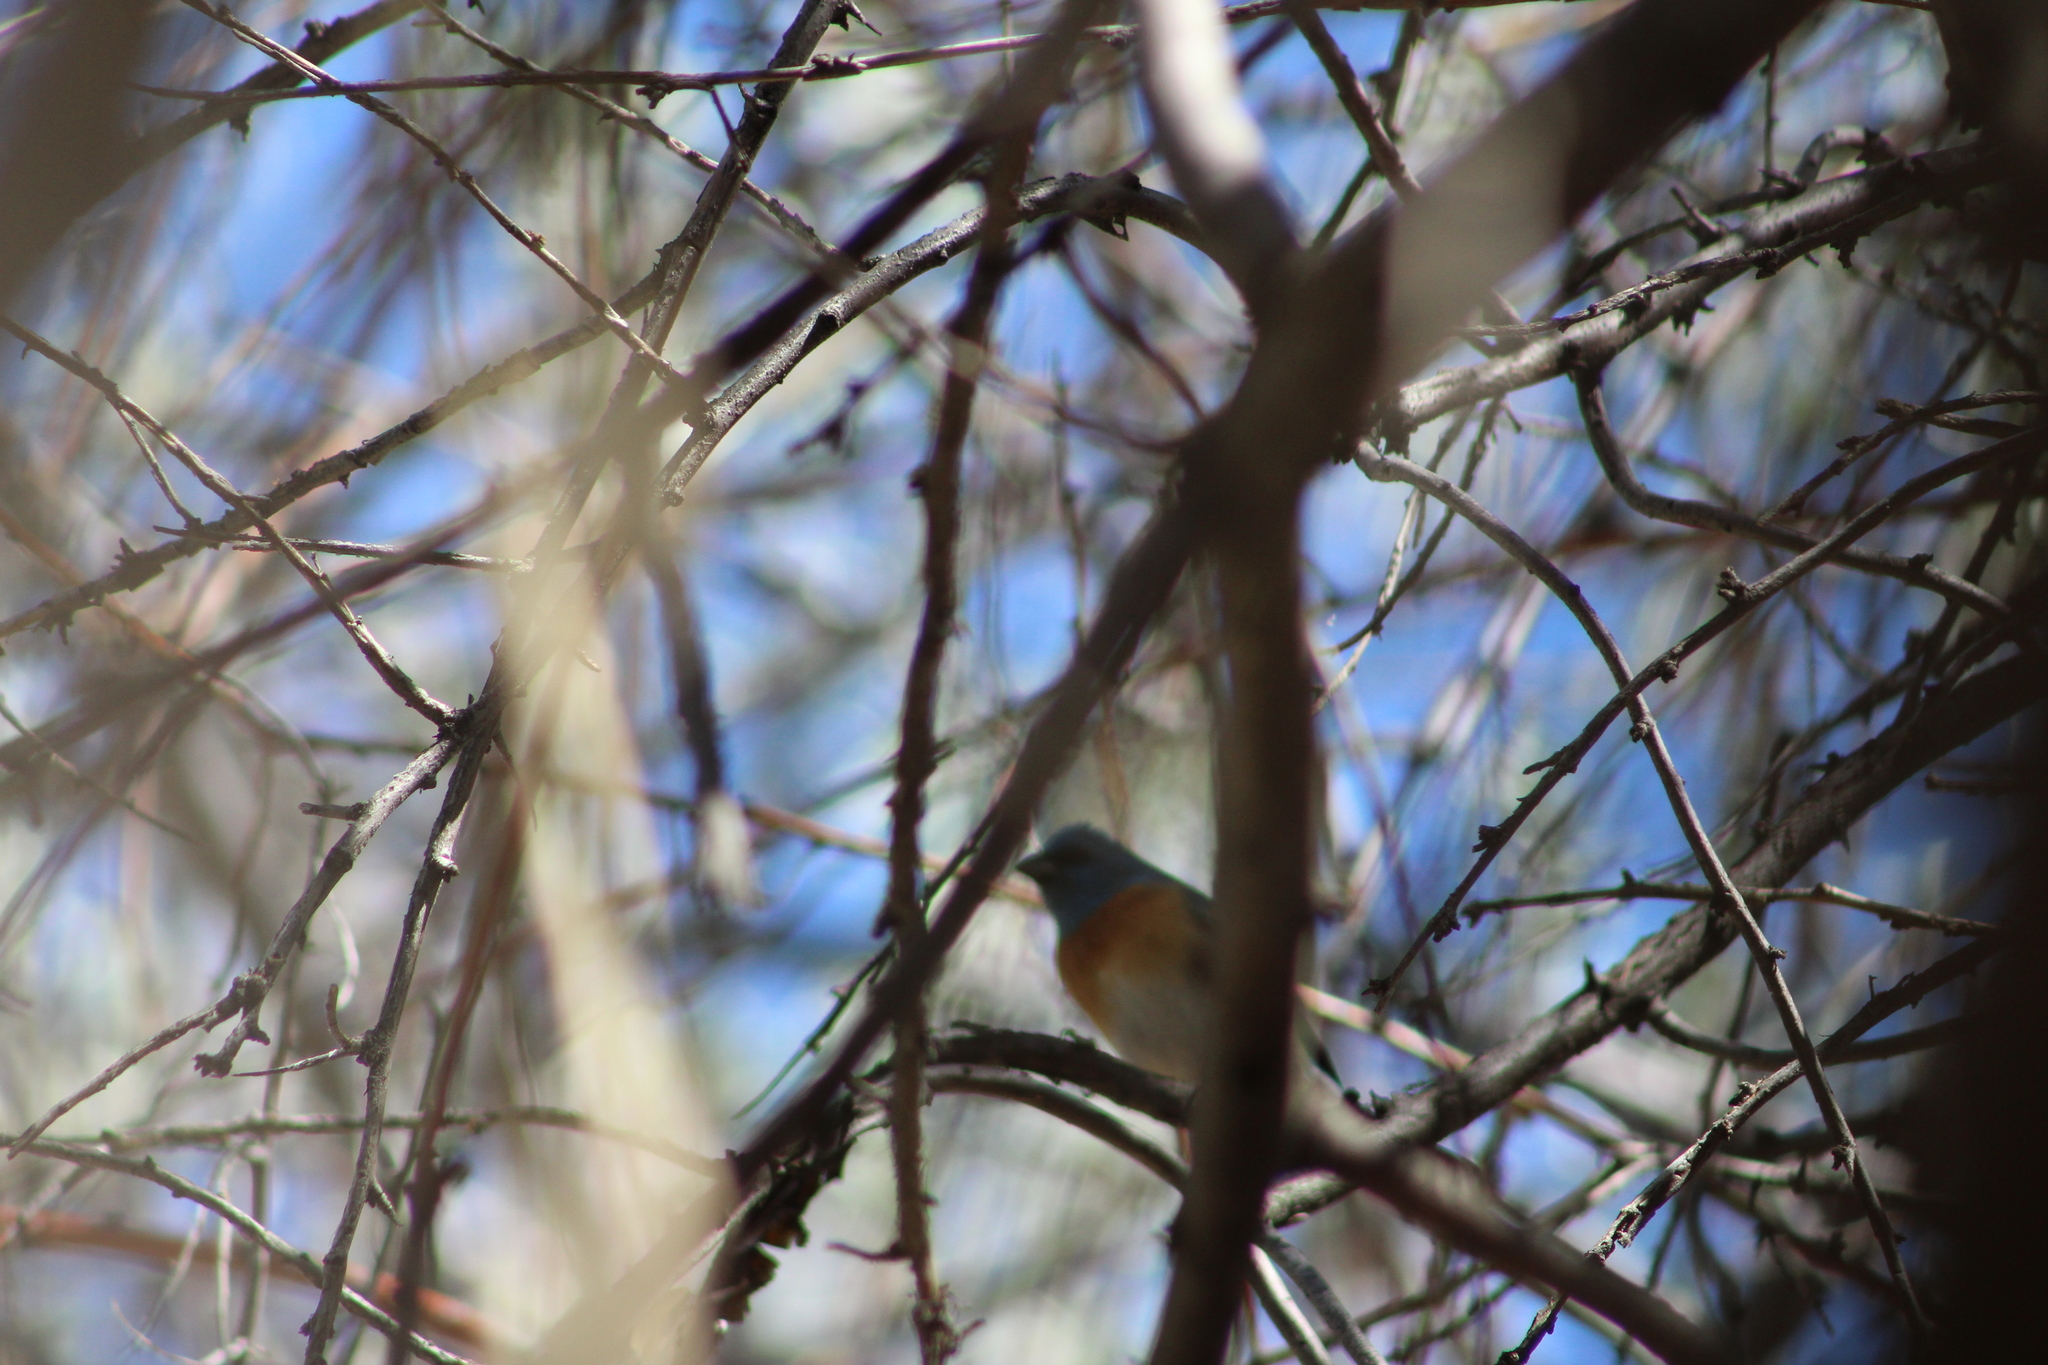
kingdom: Animalia
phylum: Chordata
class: Aves
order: Passeriformes
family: Cardinalidae
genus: Passerina
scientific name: Passerina amoena
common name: Lazuli bunting
